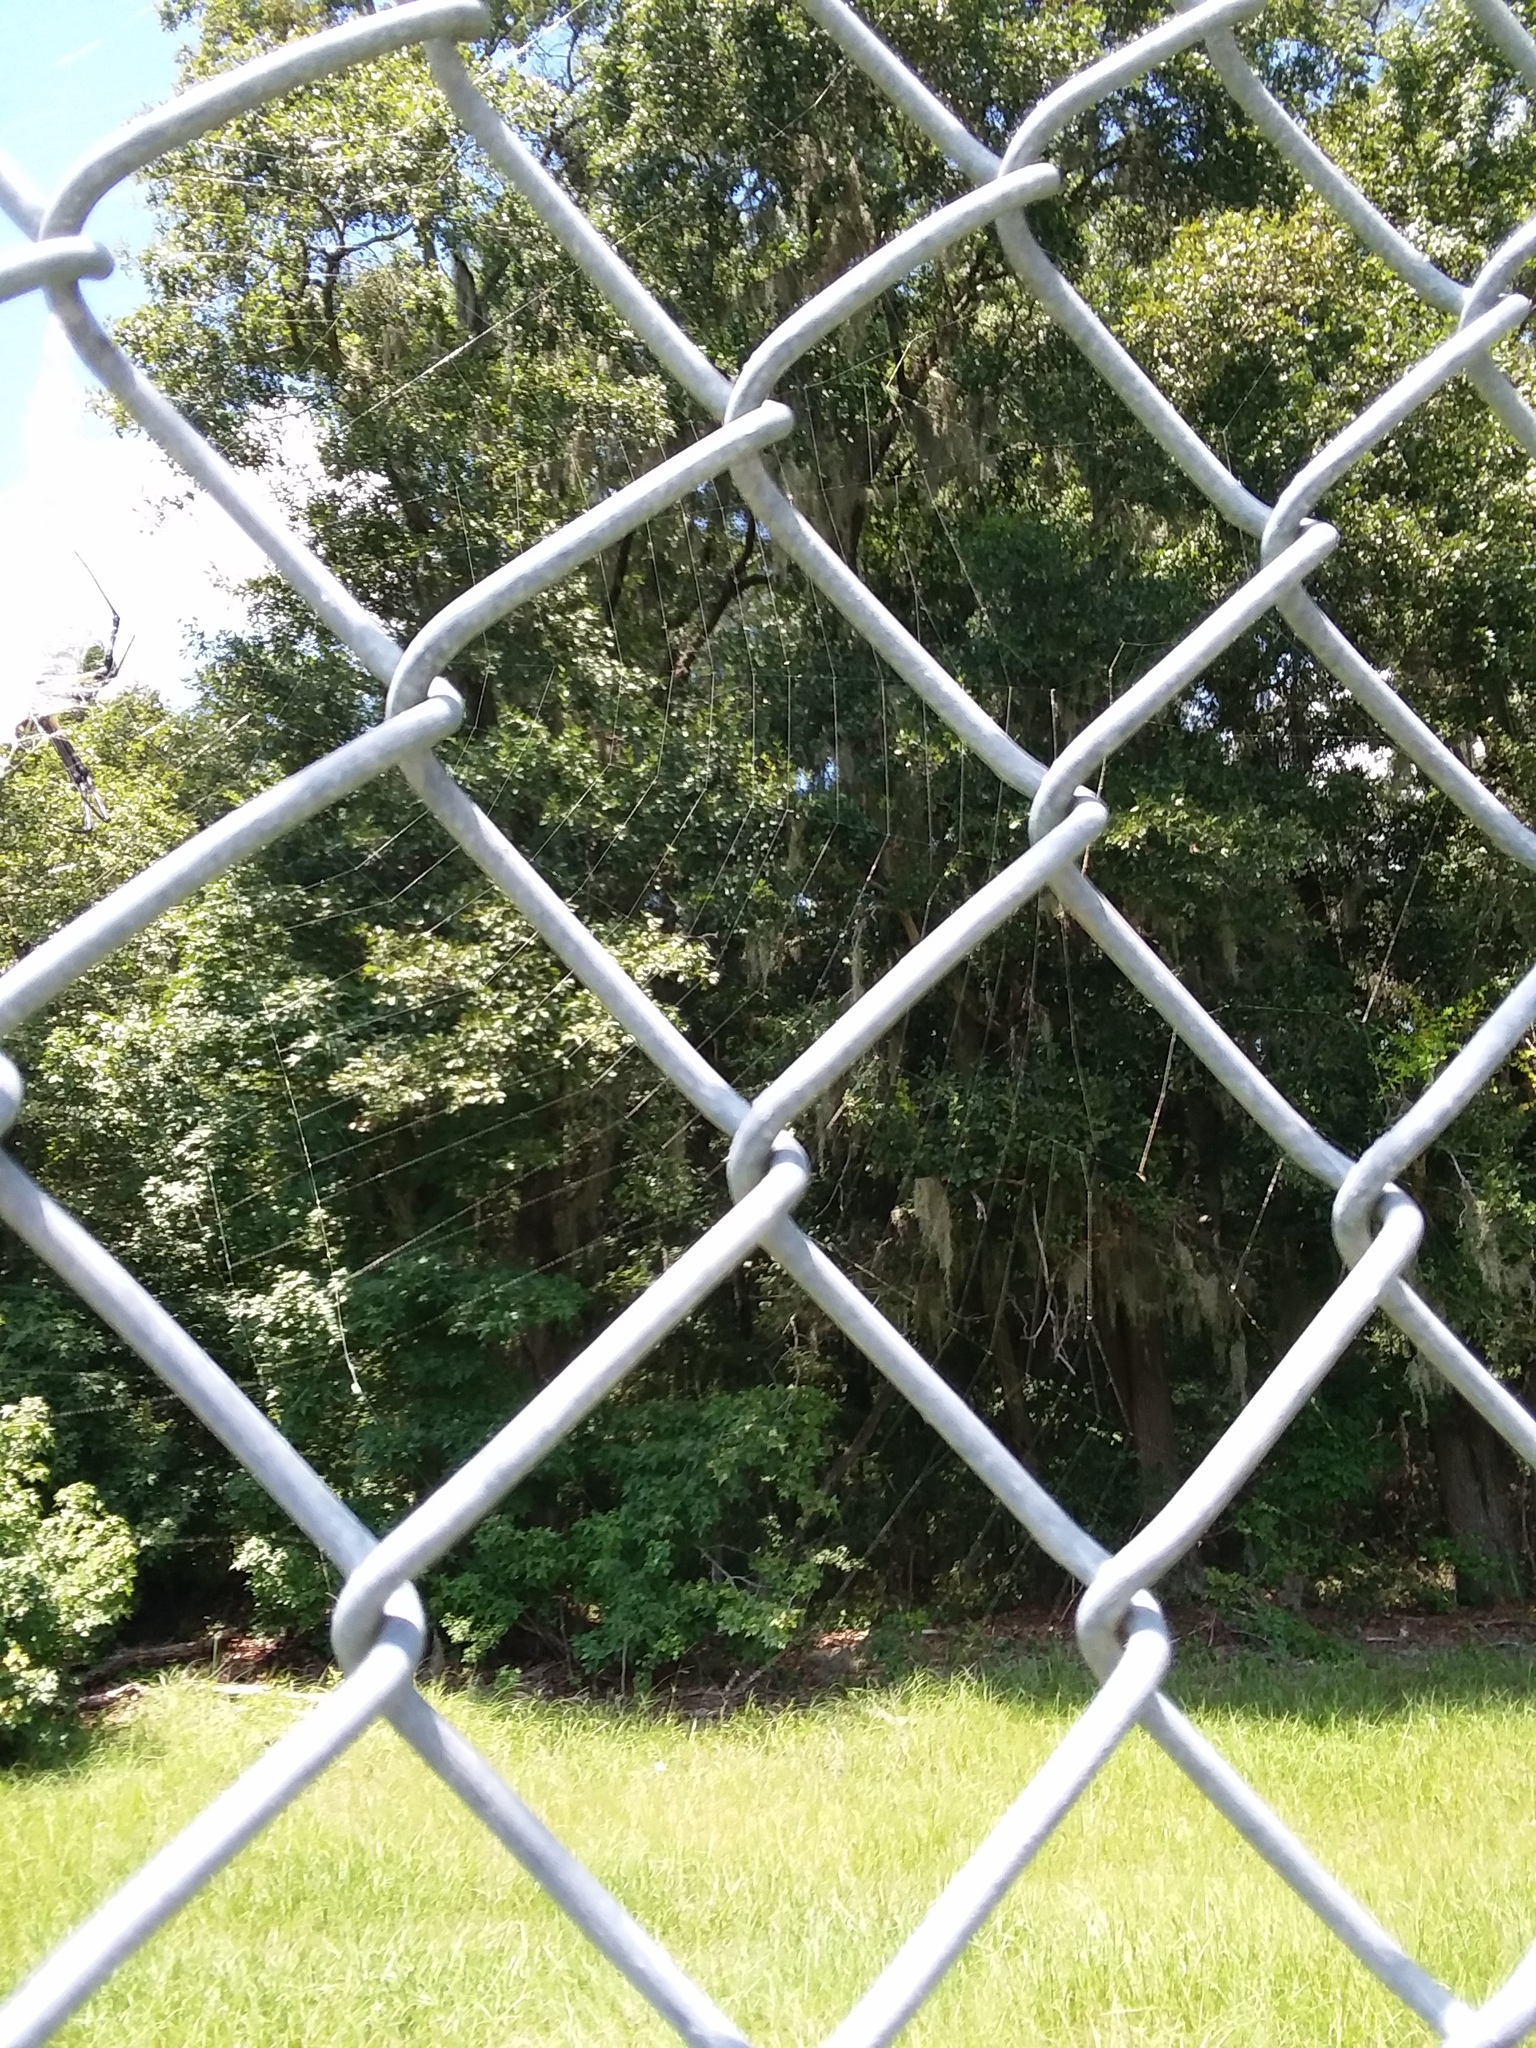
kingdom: Animalia
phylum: Arthropoda
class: Arachnida
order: Araneae
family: Araneidae
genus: Argiope
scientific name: Argiope aurantia
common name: Orb weavers
